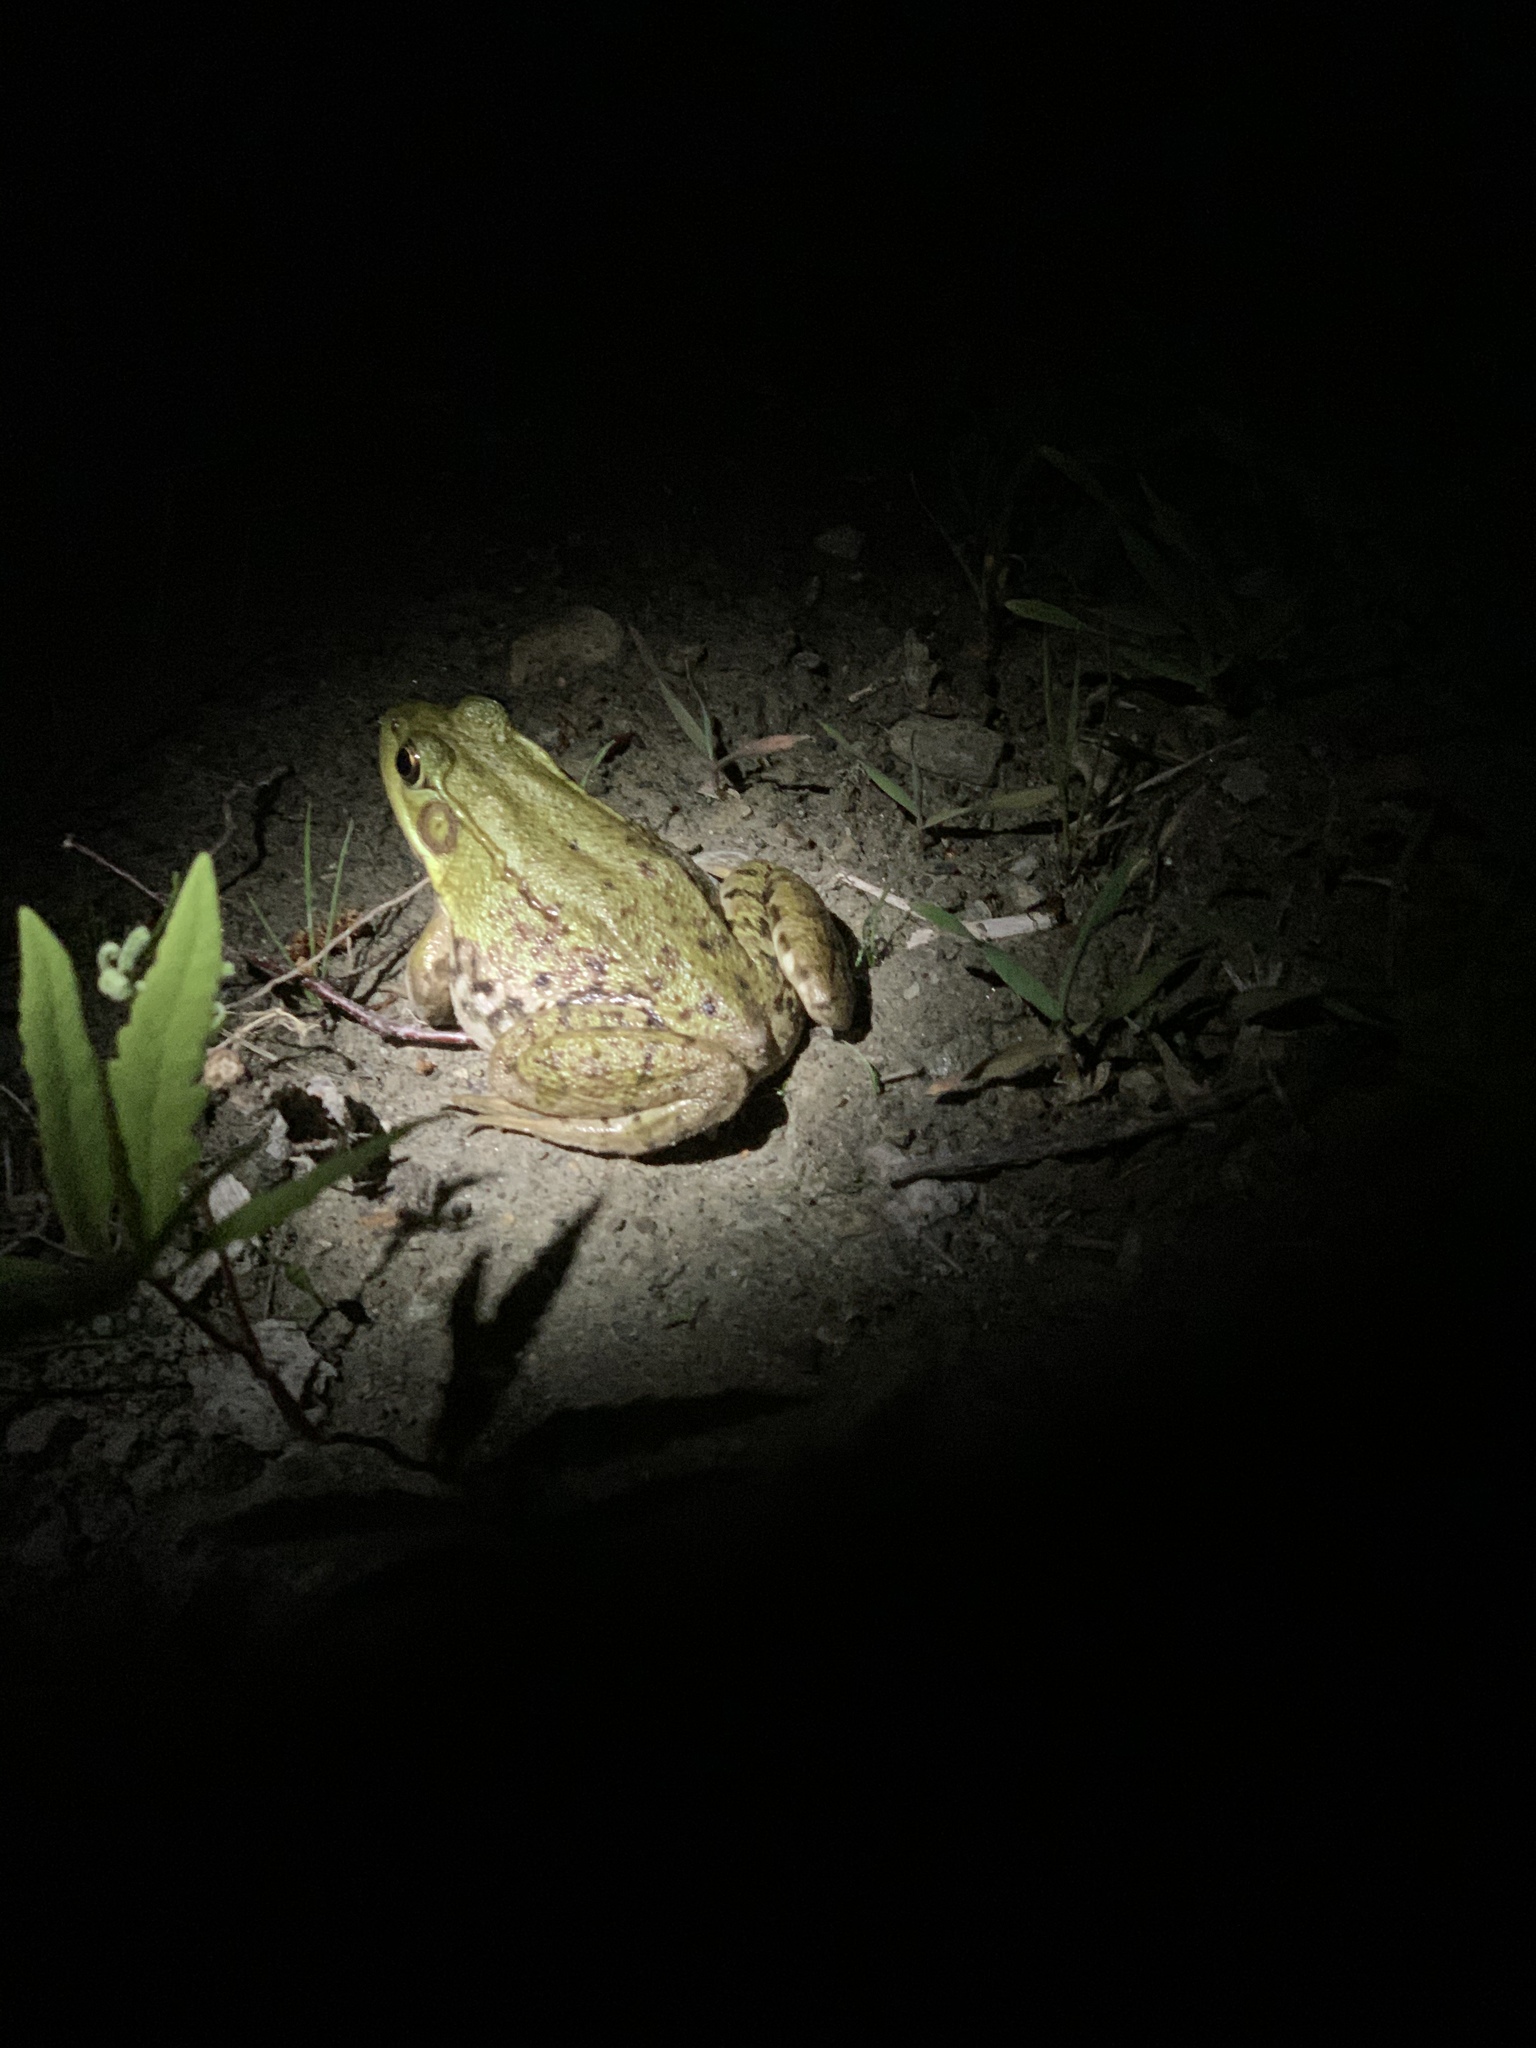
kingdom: Animalia
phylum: Chordata
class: Amphibia
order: Anura
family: Ranidae
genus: Lithobates
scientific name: Lithobates clamitans
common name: Green frog
